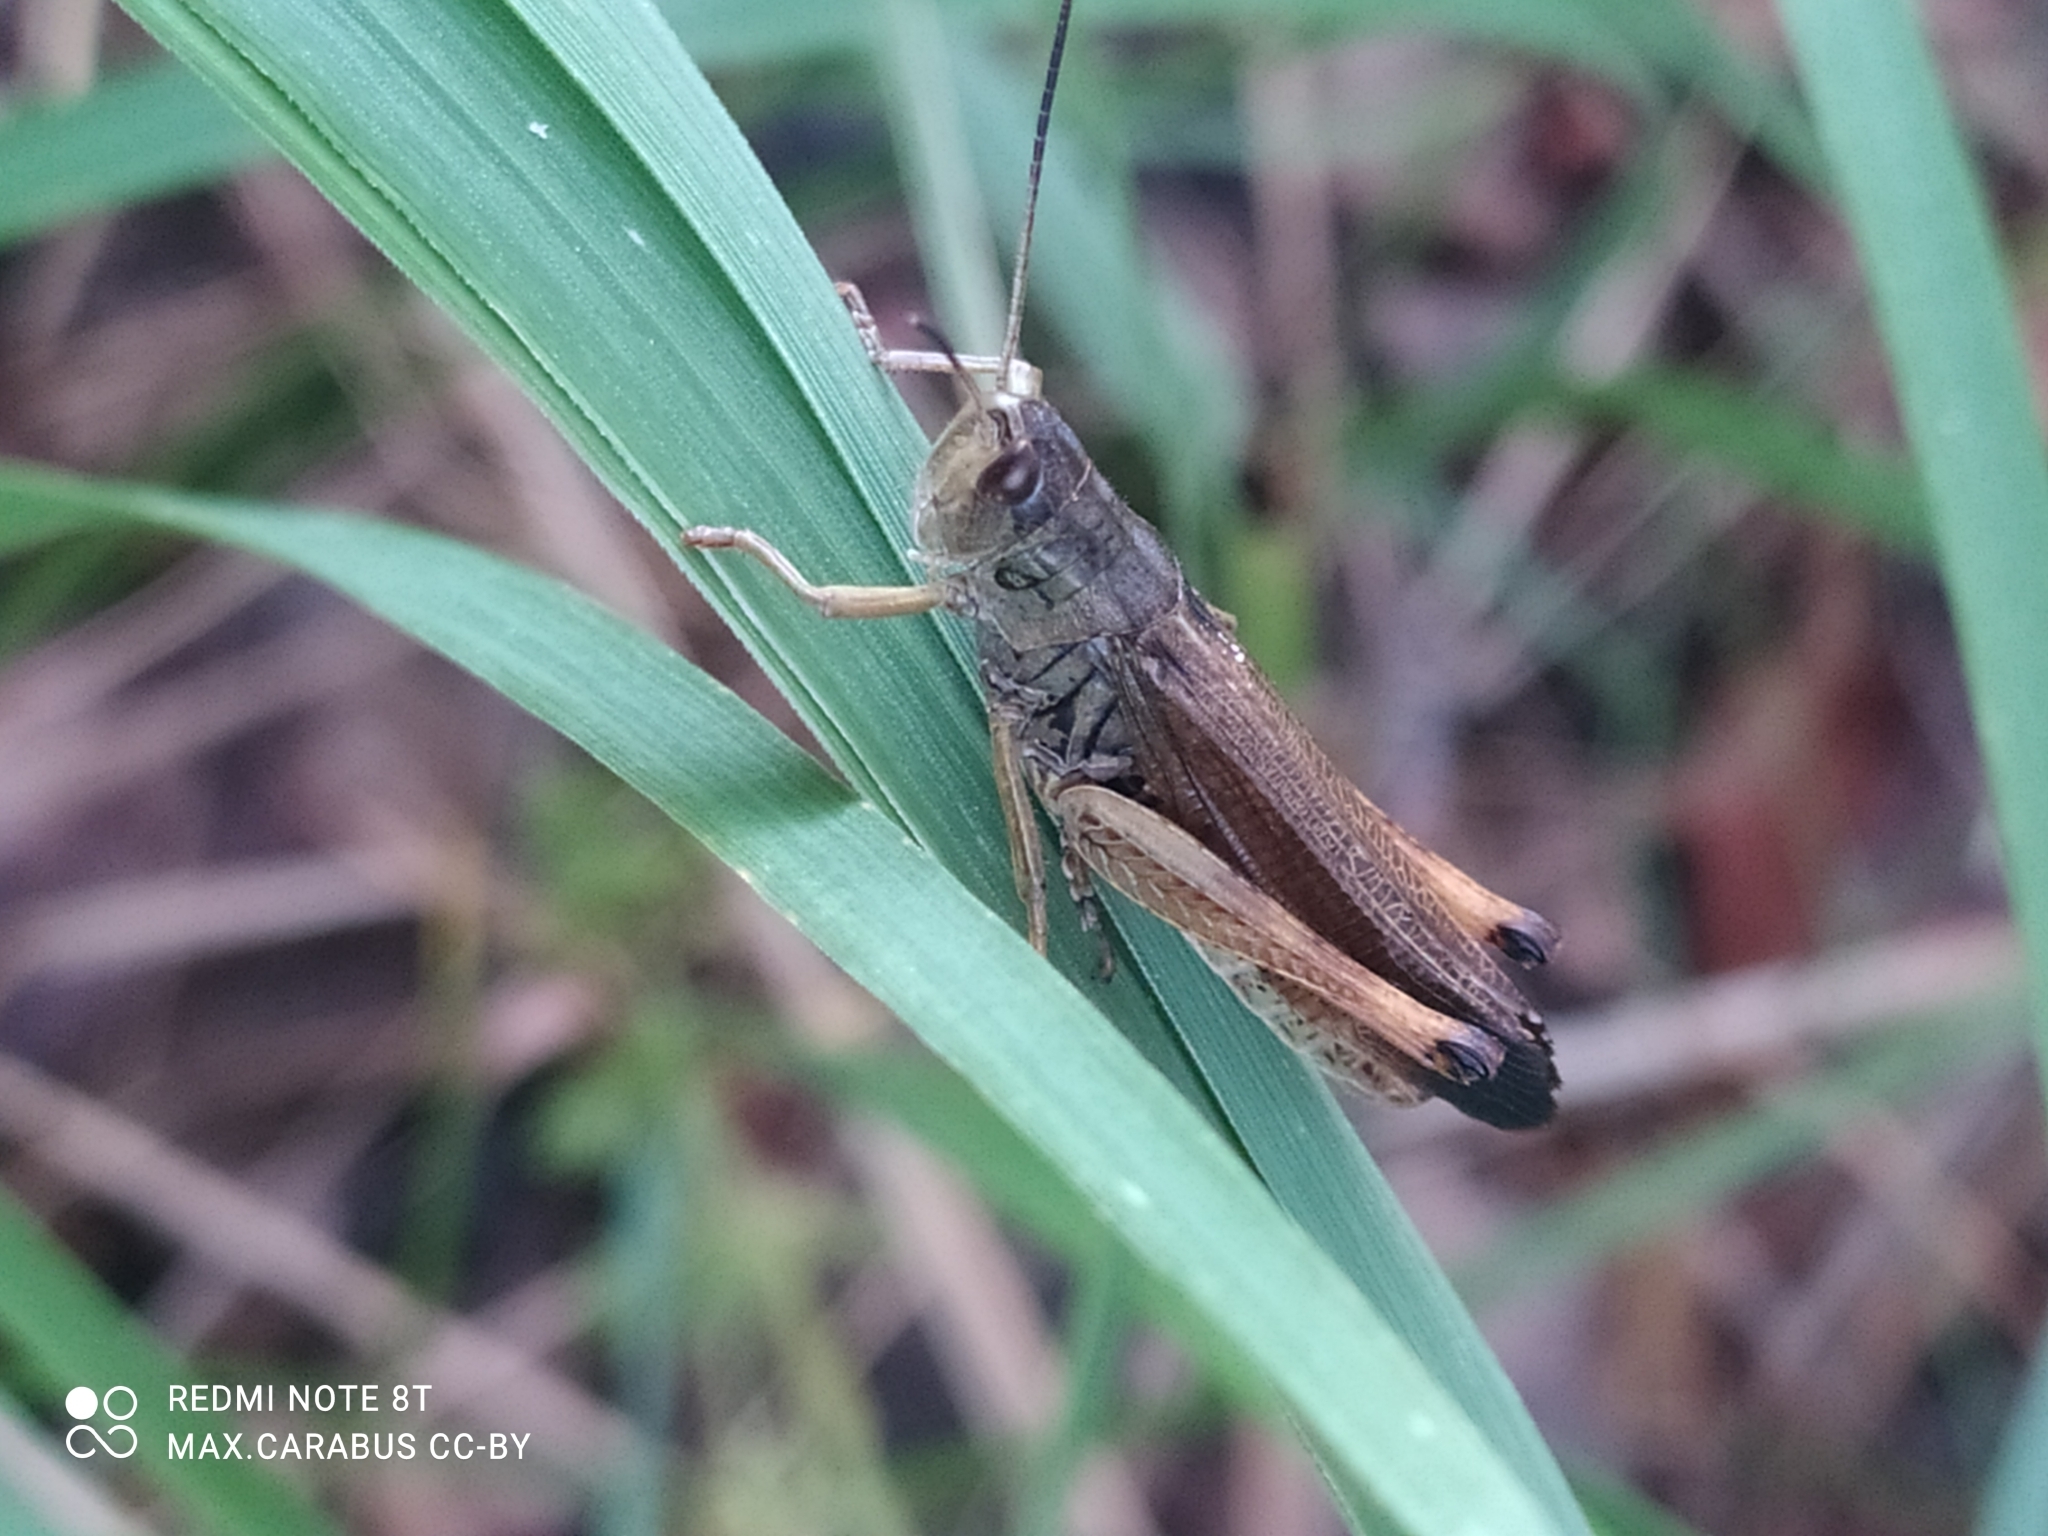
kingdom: Animalia
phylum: Arthropoda
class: Insecta
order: Orthoptera
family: Acrididae
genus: Stauroderus
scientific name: Stauroderus scalaris
